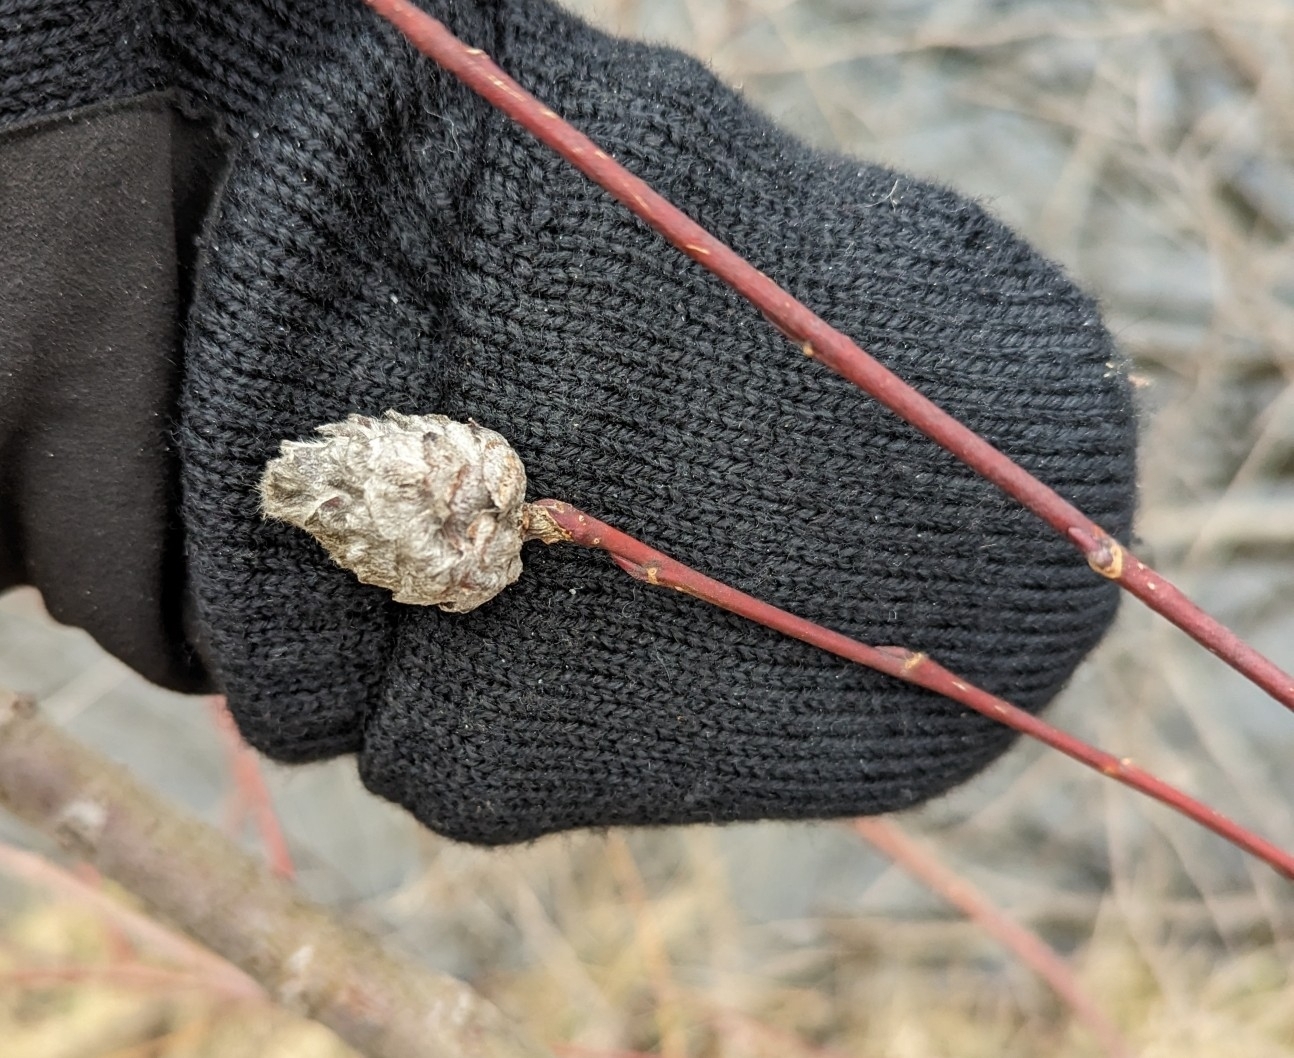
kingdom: Animalia
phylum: Arthropoda
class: Insecta
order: Diptera
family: Cecidomyiidae
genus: Rabdophaga
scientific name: Rabdophaga strobiloides
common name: Willow pinecone gall midge
